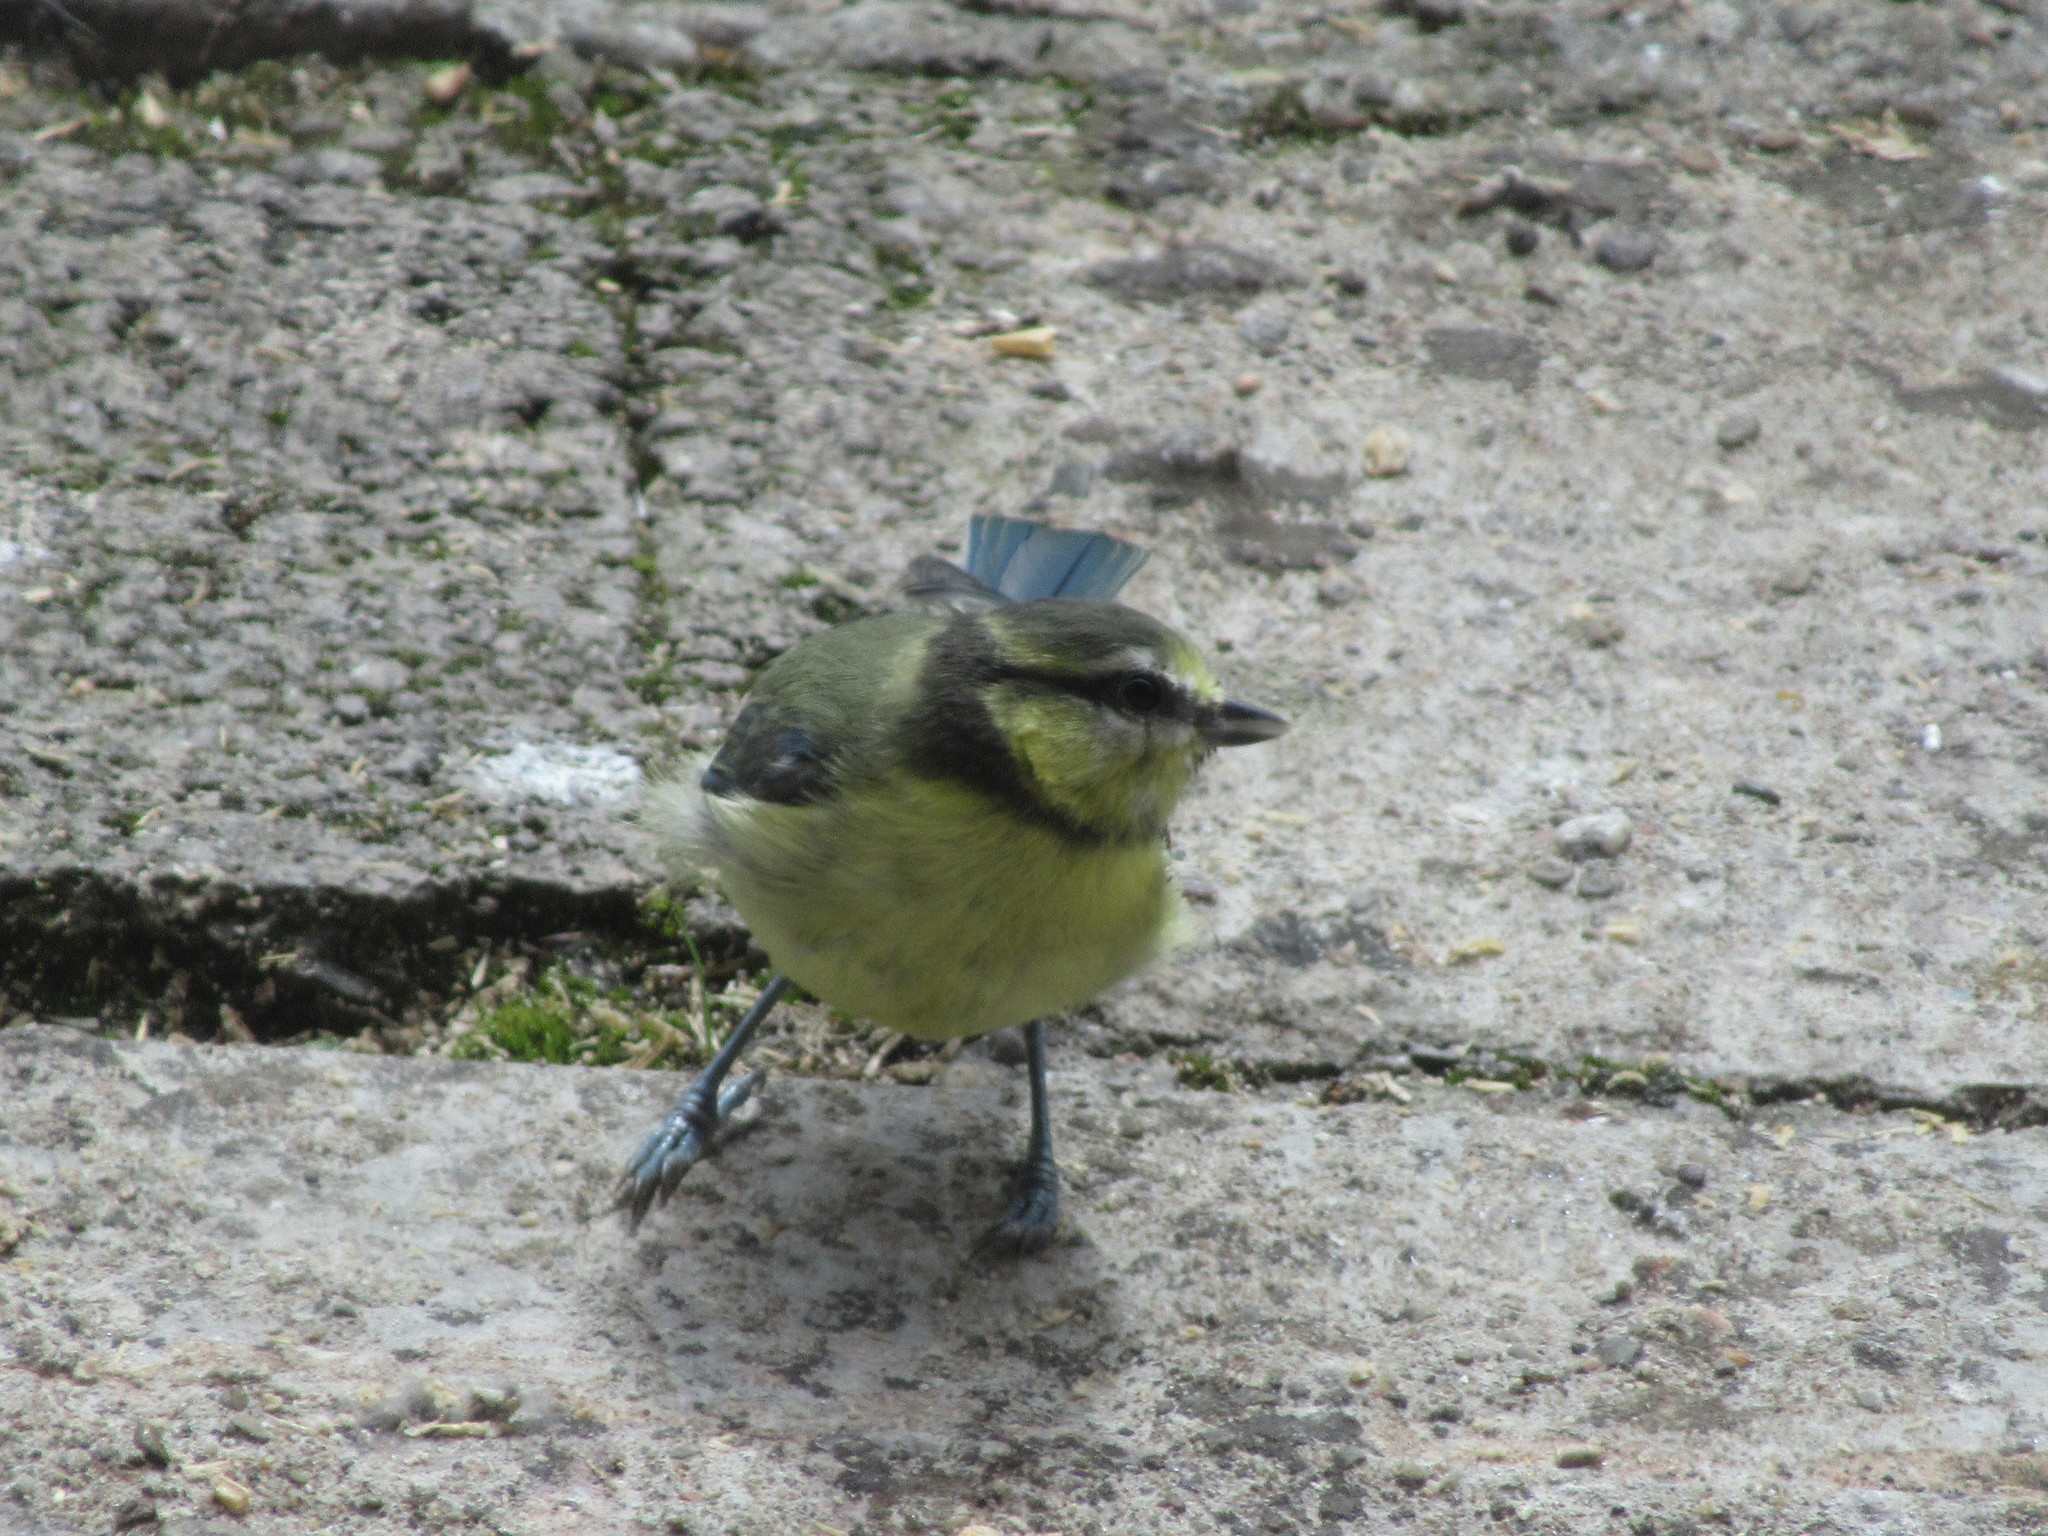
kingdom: Animalia
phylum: Chordata
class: Aves
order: Passeriformes
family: Paridae
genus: Cyanistes
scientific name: Cyanistes caeruleus
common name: Eurasian blue tit
